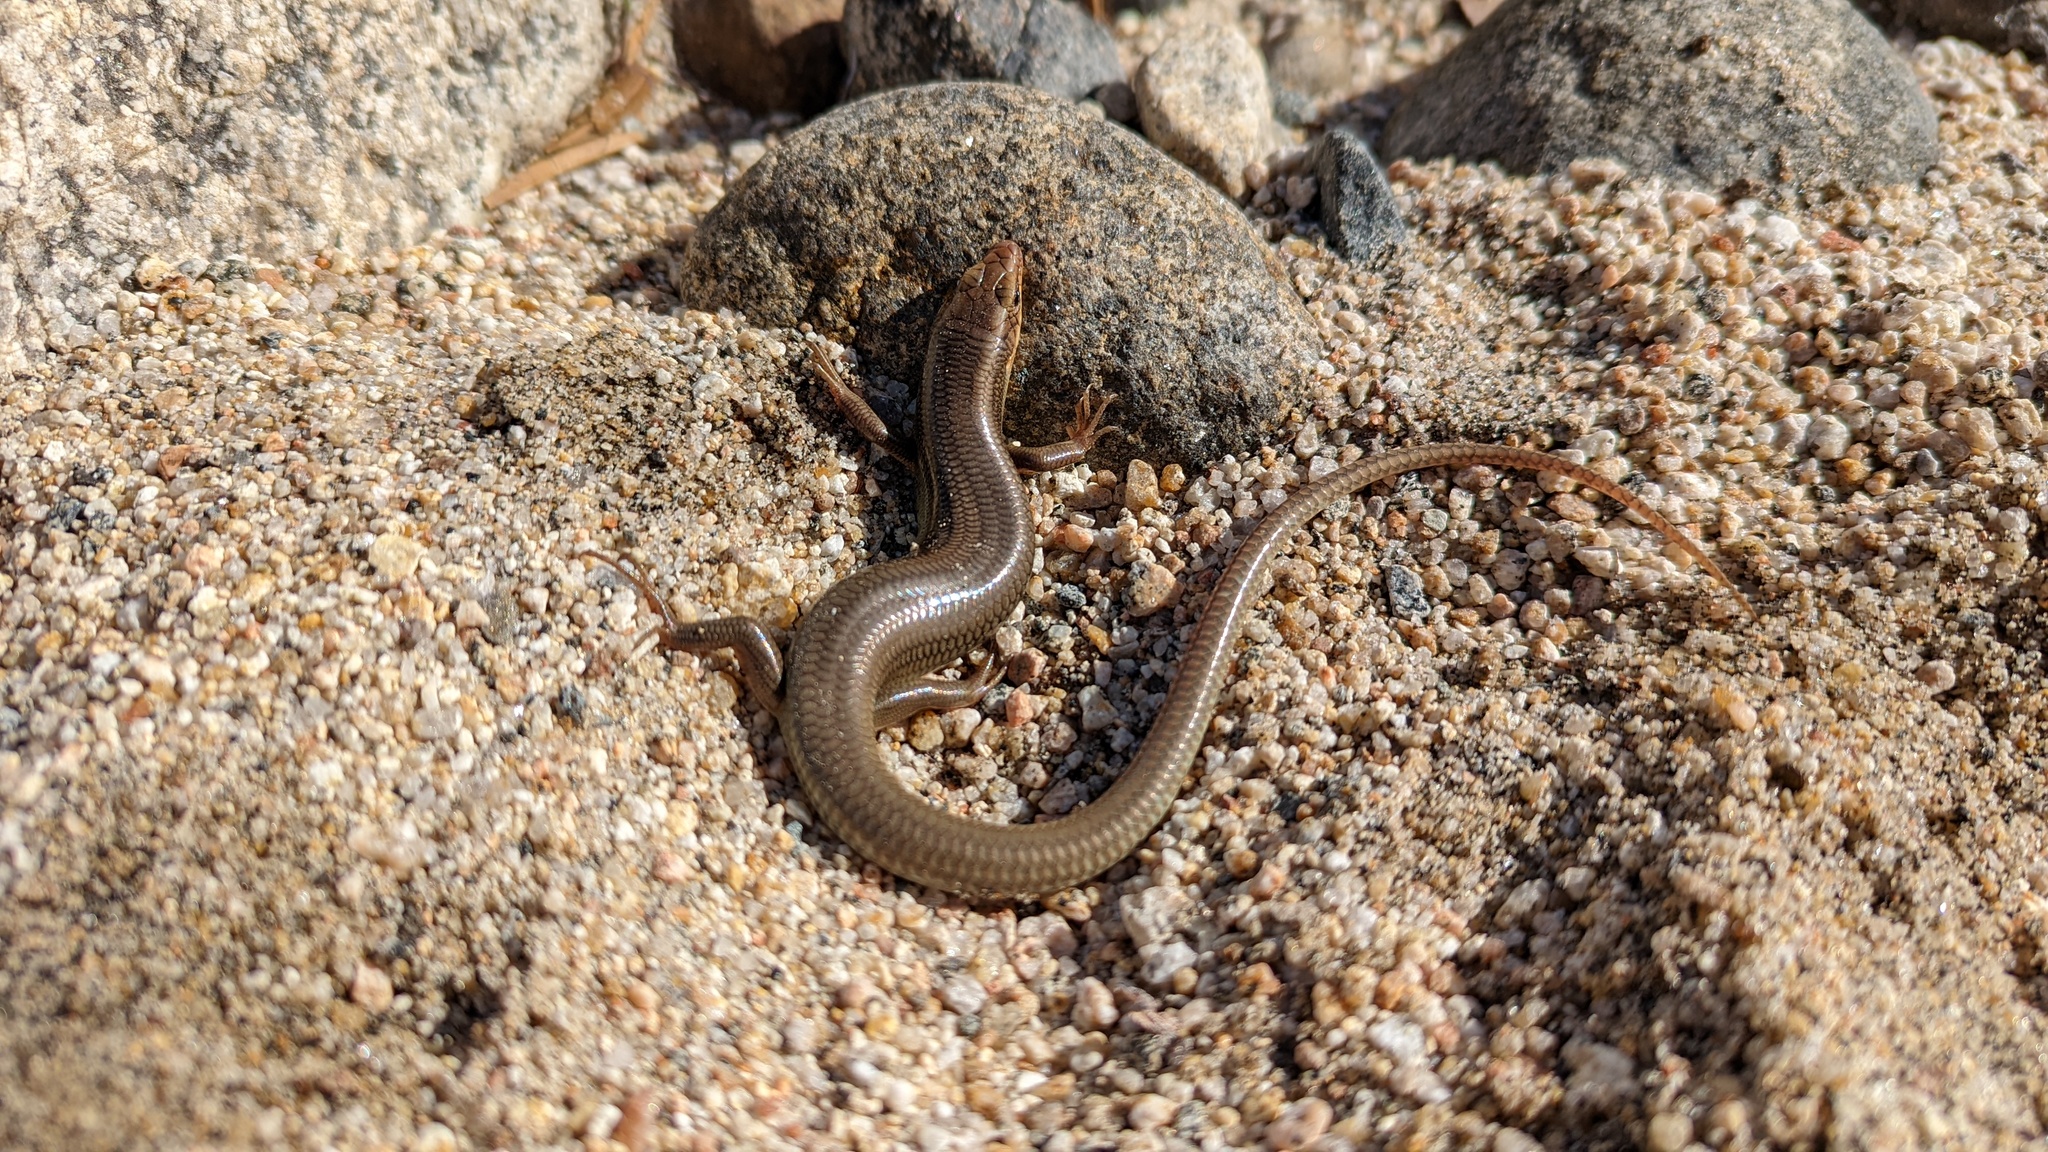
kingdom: Animalia
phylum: Chordata
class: Squamata
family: Scincidae
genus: Plestiodon
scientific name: Plestiodon gilberti
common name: Gilbert's skink
